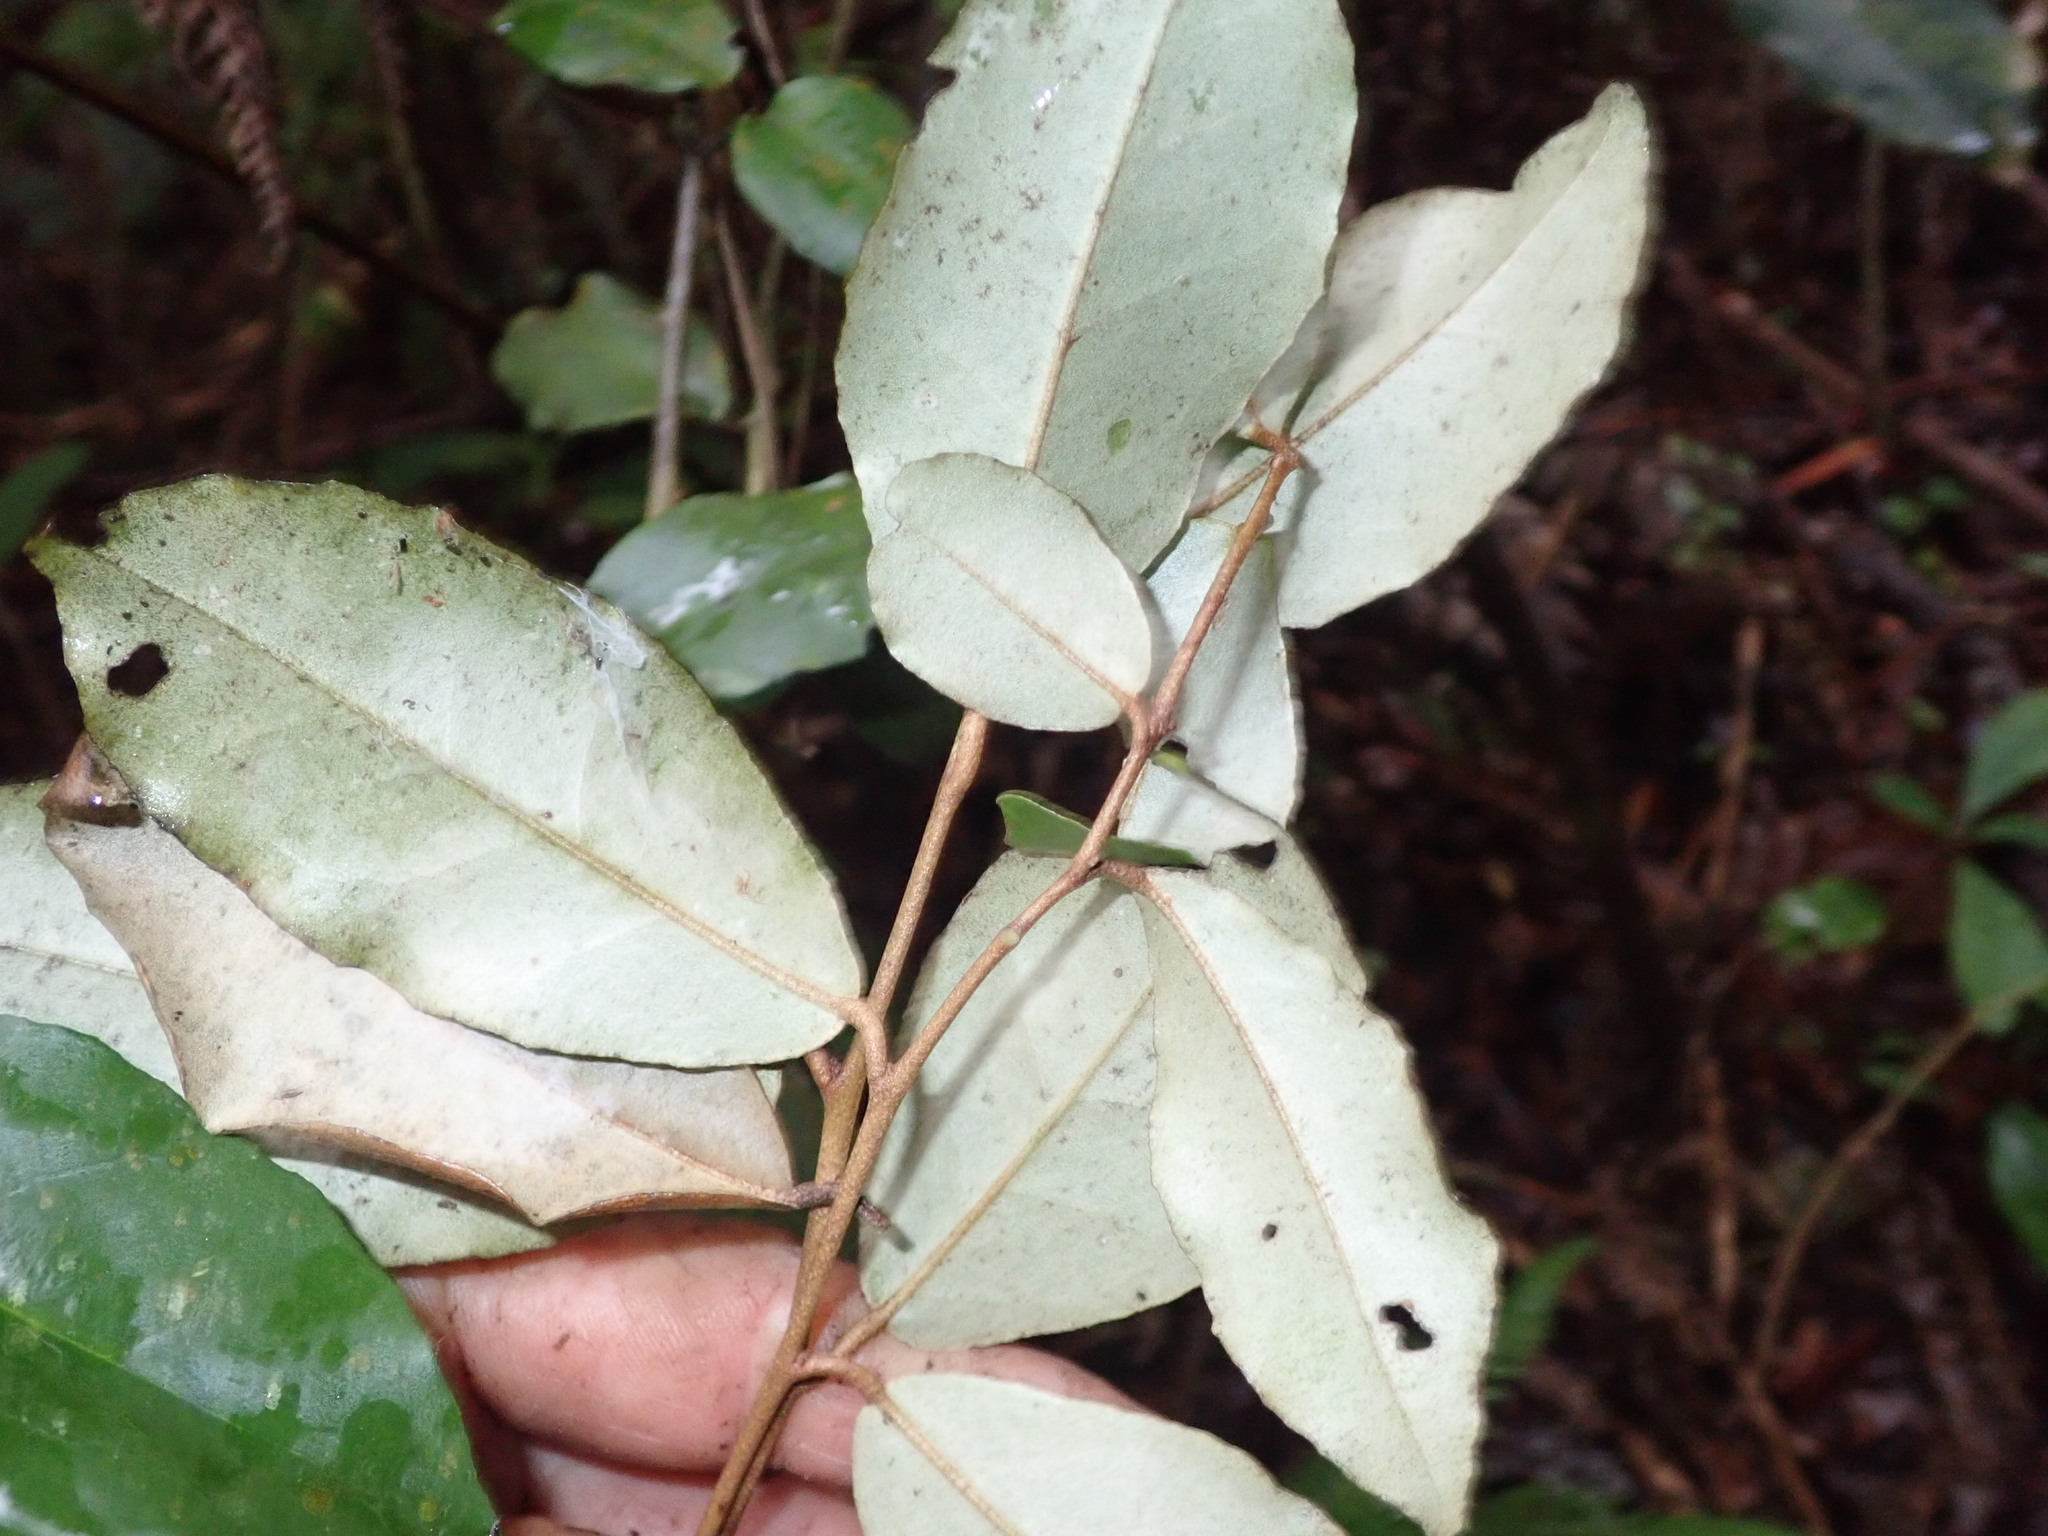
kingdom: Plantae
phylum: Tracheophyta
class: Magnoliopsida
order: Rosales
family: Elaeagnaceae
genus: Elaeagnus
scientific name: Elaeagnus reflexa
